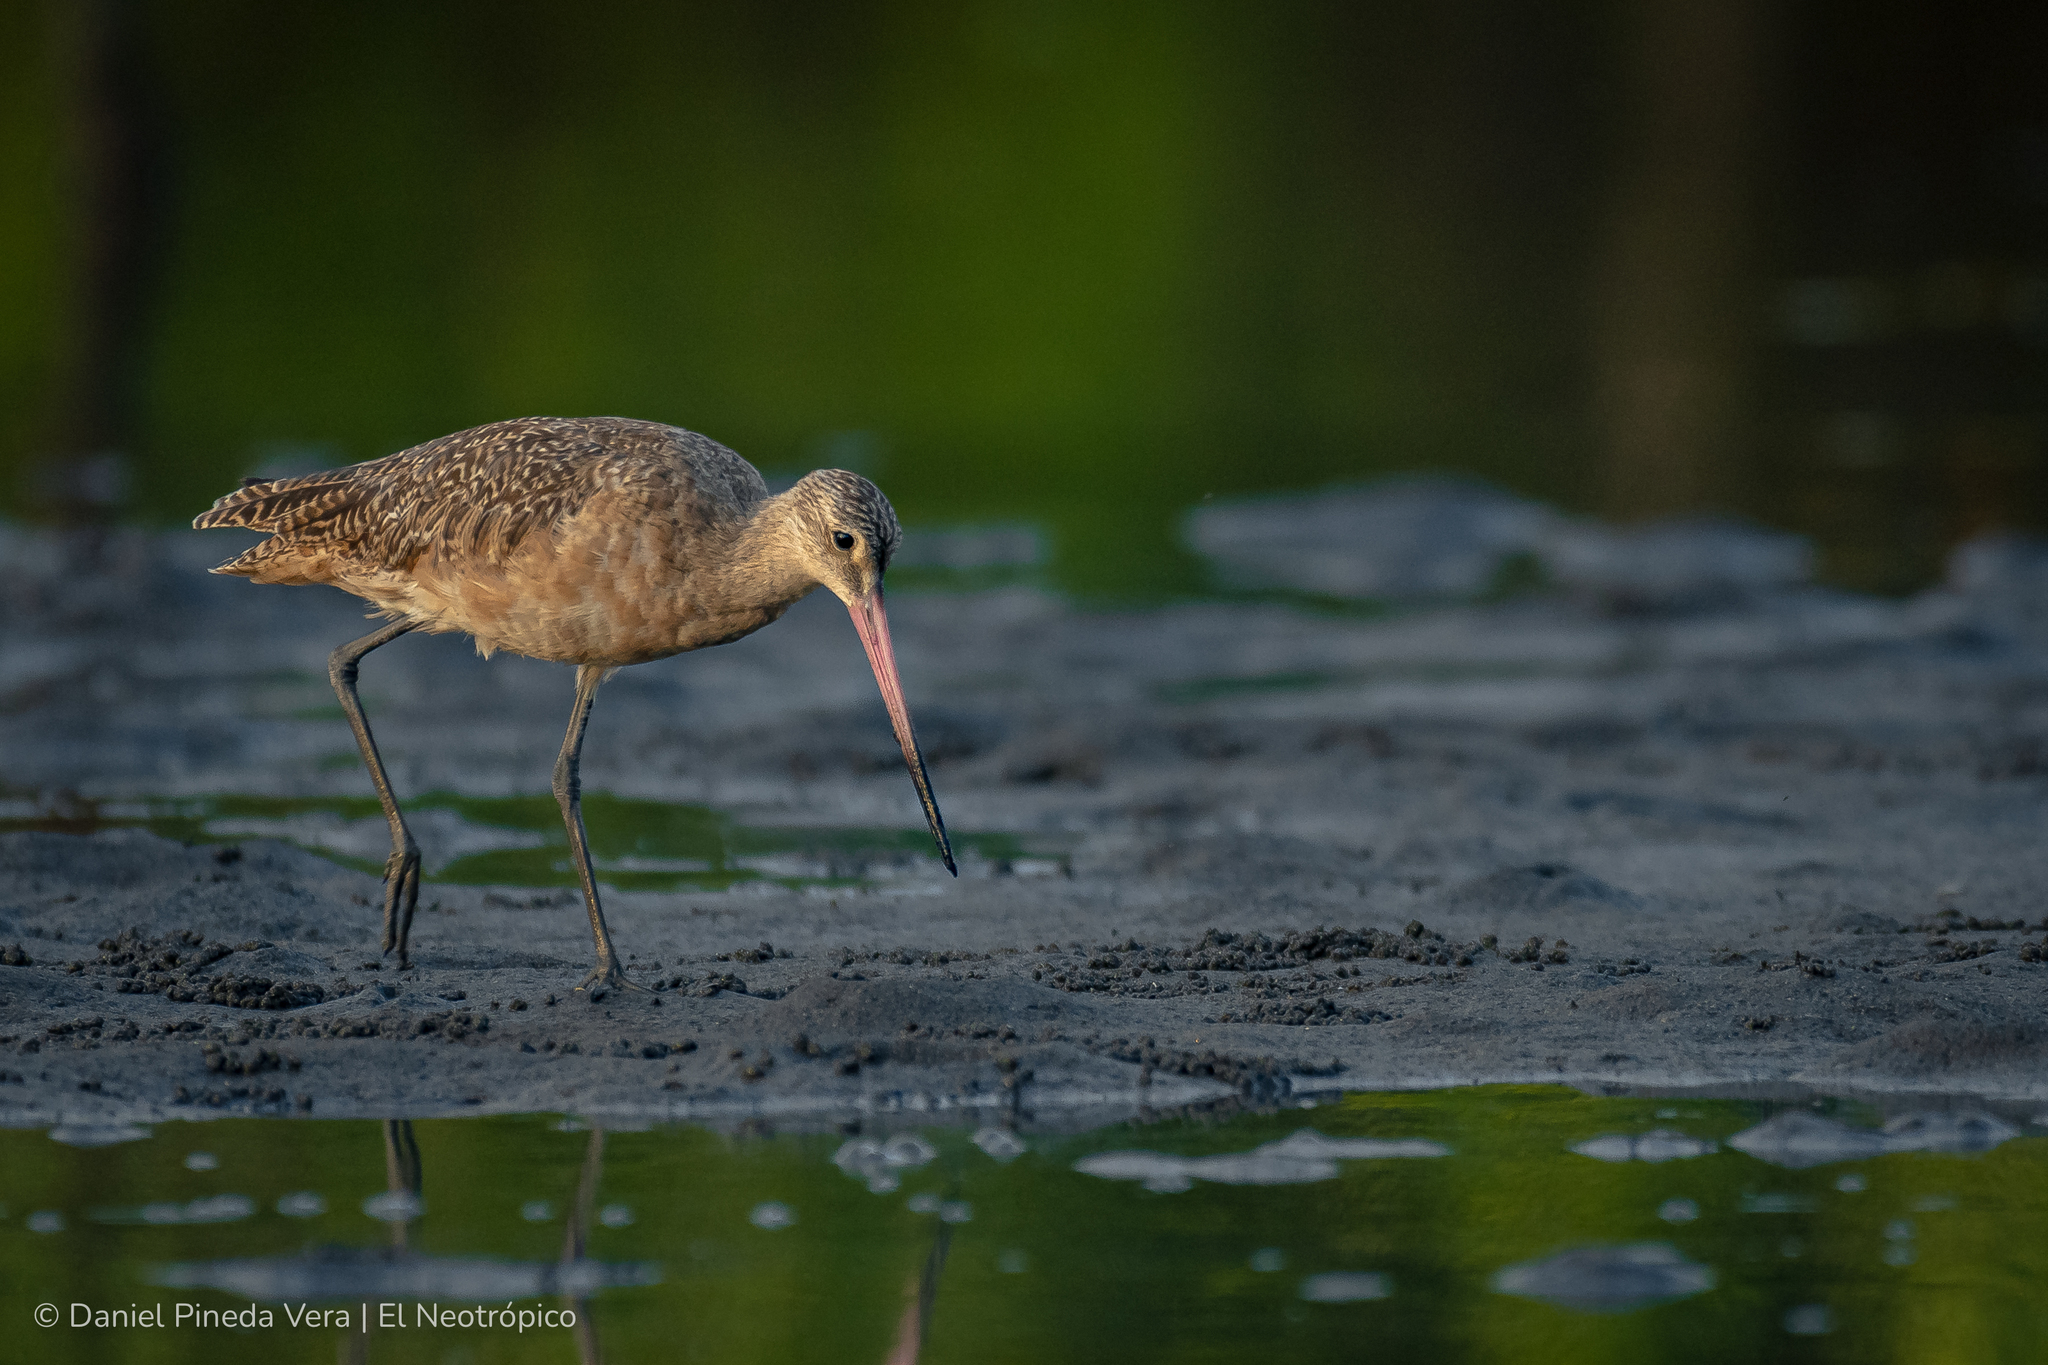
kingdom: Animalia
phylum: Chordata
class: Aves
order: Charadriiformes
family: Scolopacidae
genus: Limosa
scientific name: Limosa fedoa
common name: Marbled godwit
